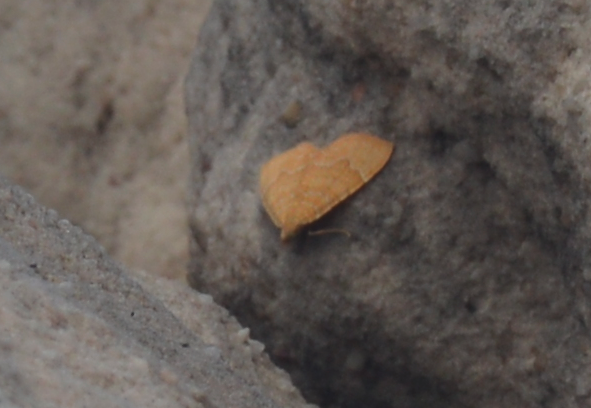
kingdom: Animalia
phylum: Arthropoda
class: Insecta
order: Lepidoptera
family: Geometridae
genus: Camptogramma
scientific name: Camptogramma bilineata
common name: Yellow shell
